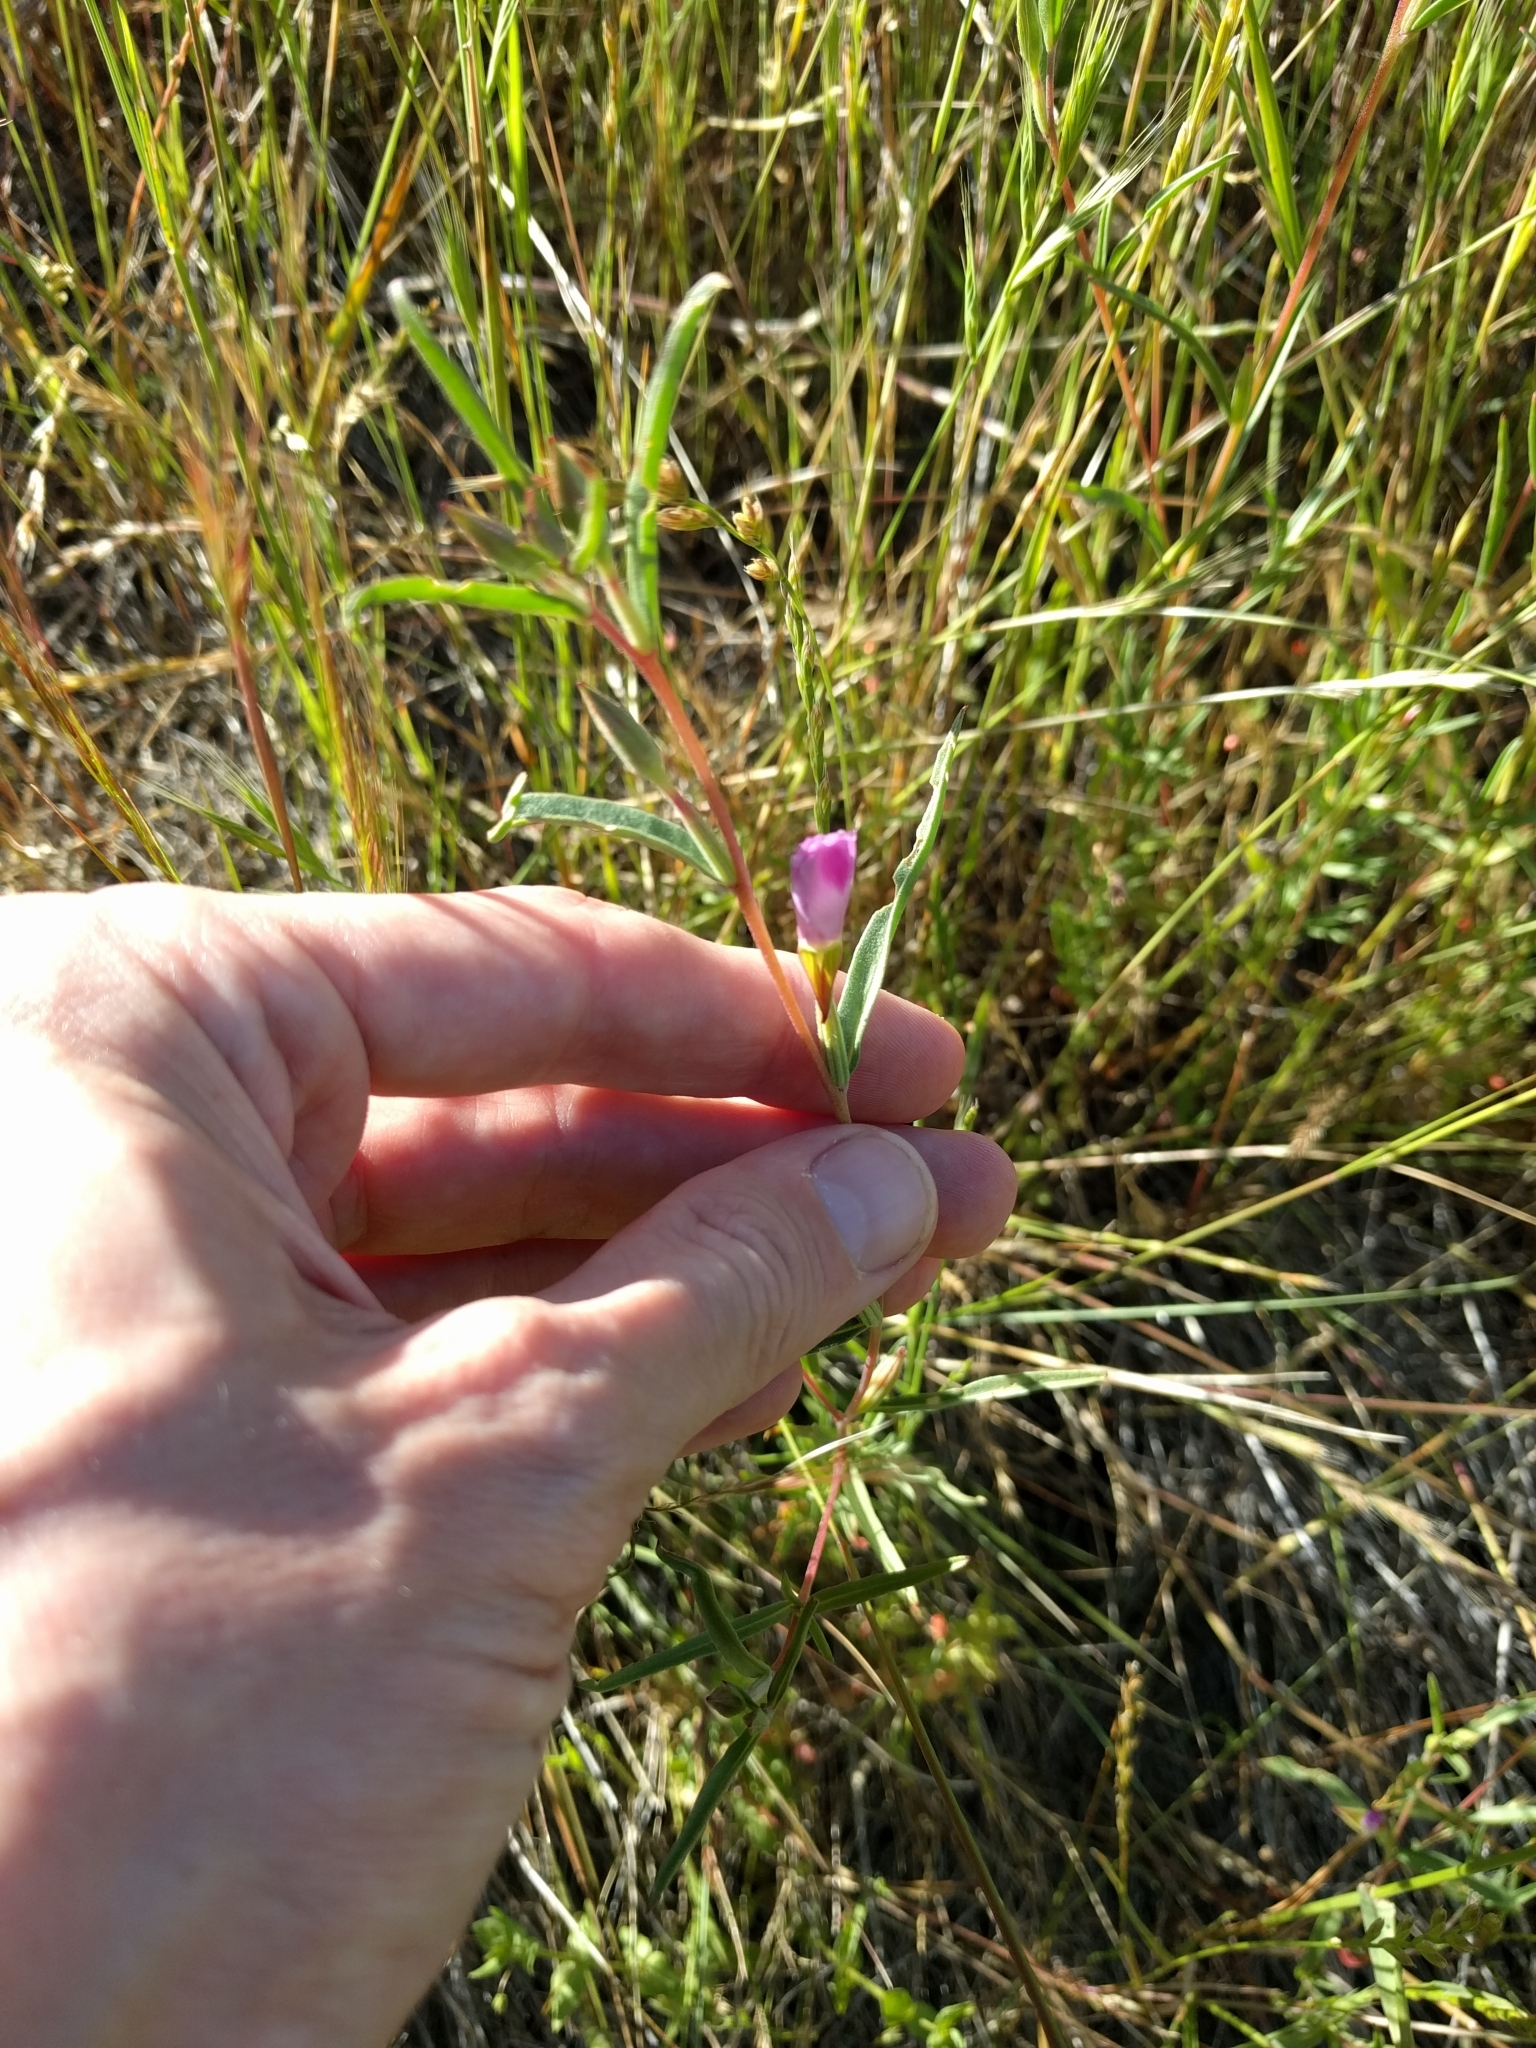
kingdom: Plantae
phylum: Tracheophyta
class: Magnoliopsida
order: Myrtales
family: Onagraceae
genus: Clarkia
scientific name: Clarkia purpurea
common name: Purple clarkia
